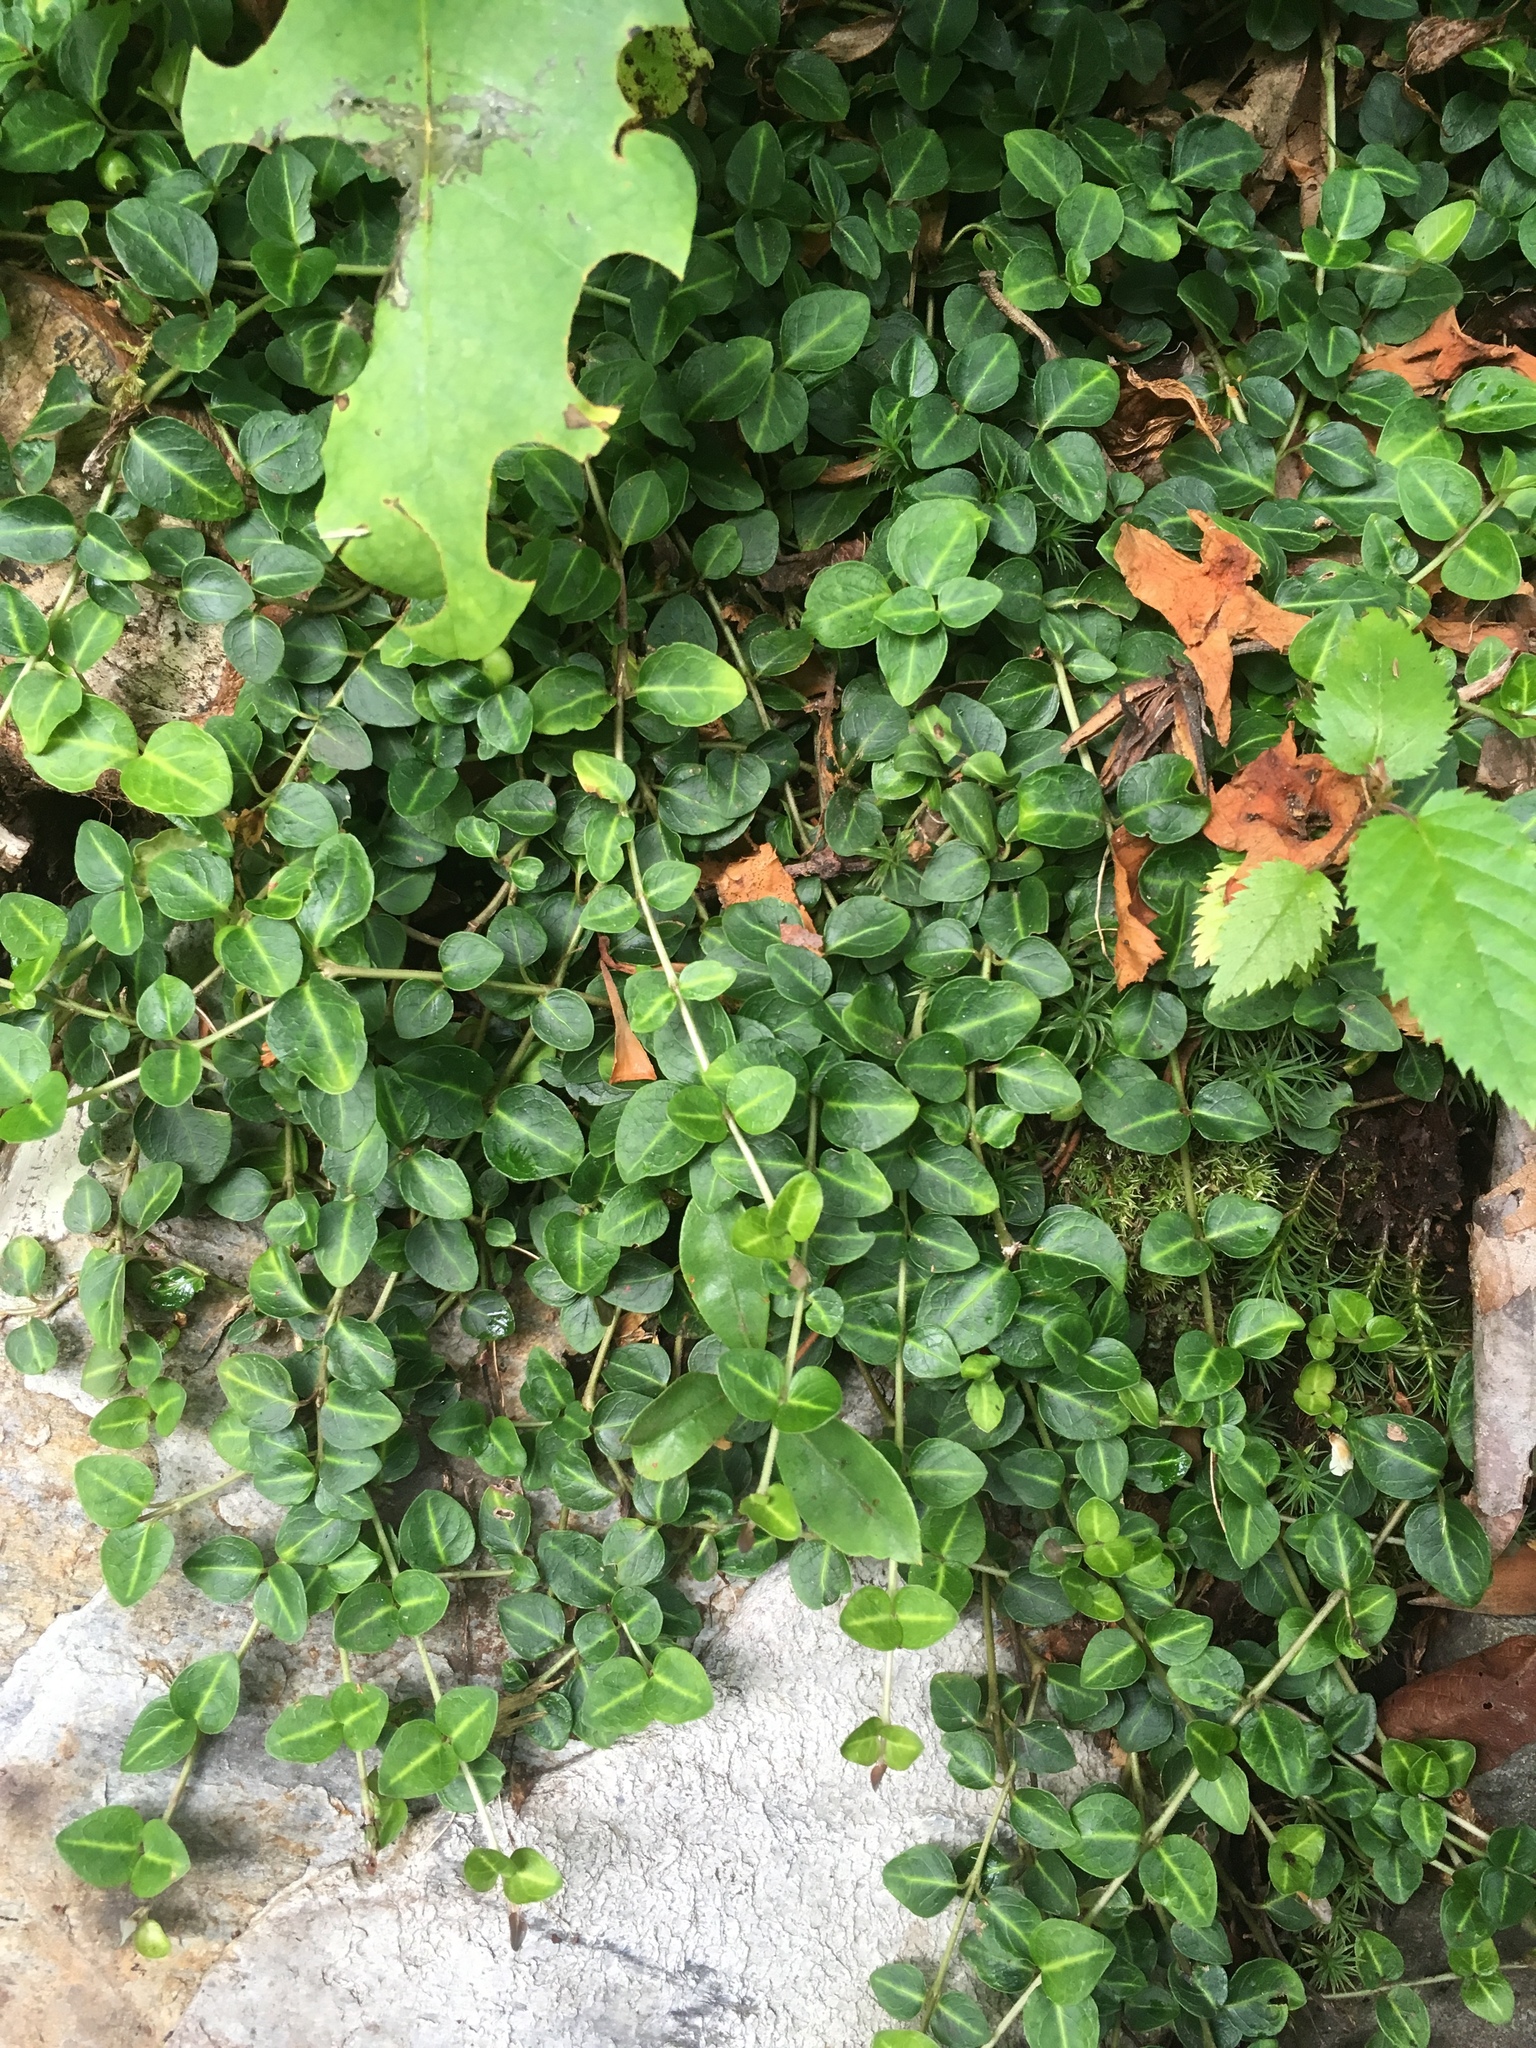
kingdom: Plantae
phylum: Tracheophyta
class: Magnoliopsida
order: Gentianales
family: Rubiaceae
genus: Mitchella
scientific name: Mitchella repens
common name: Partridge-berry
